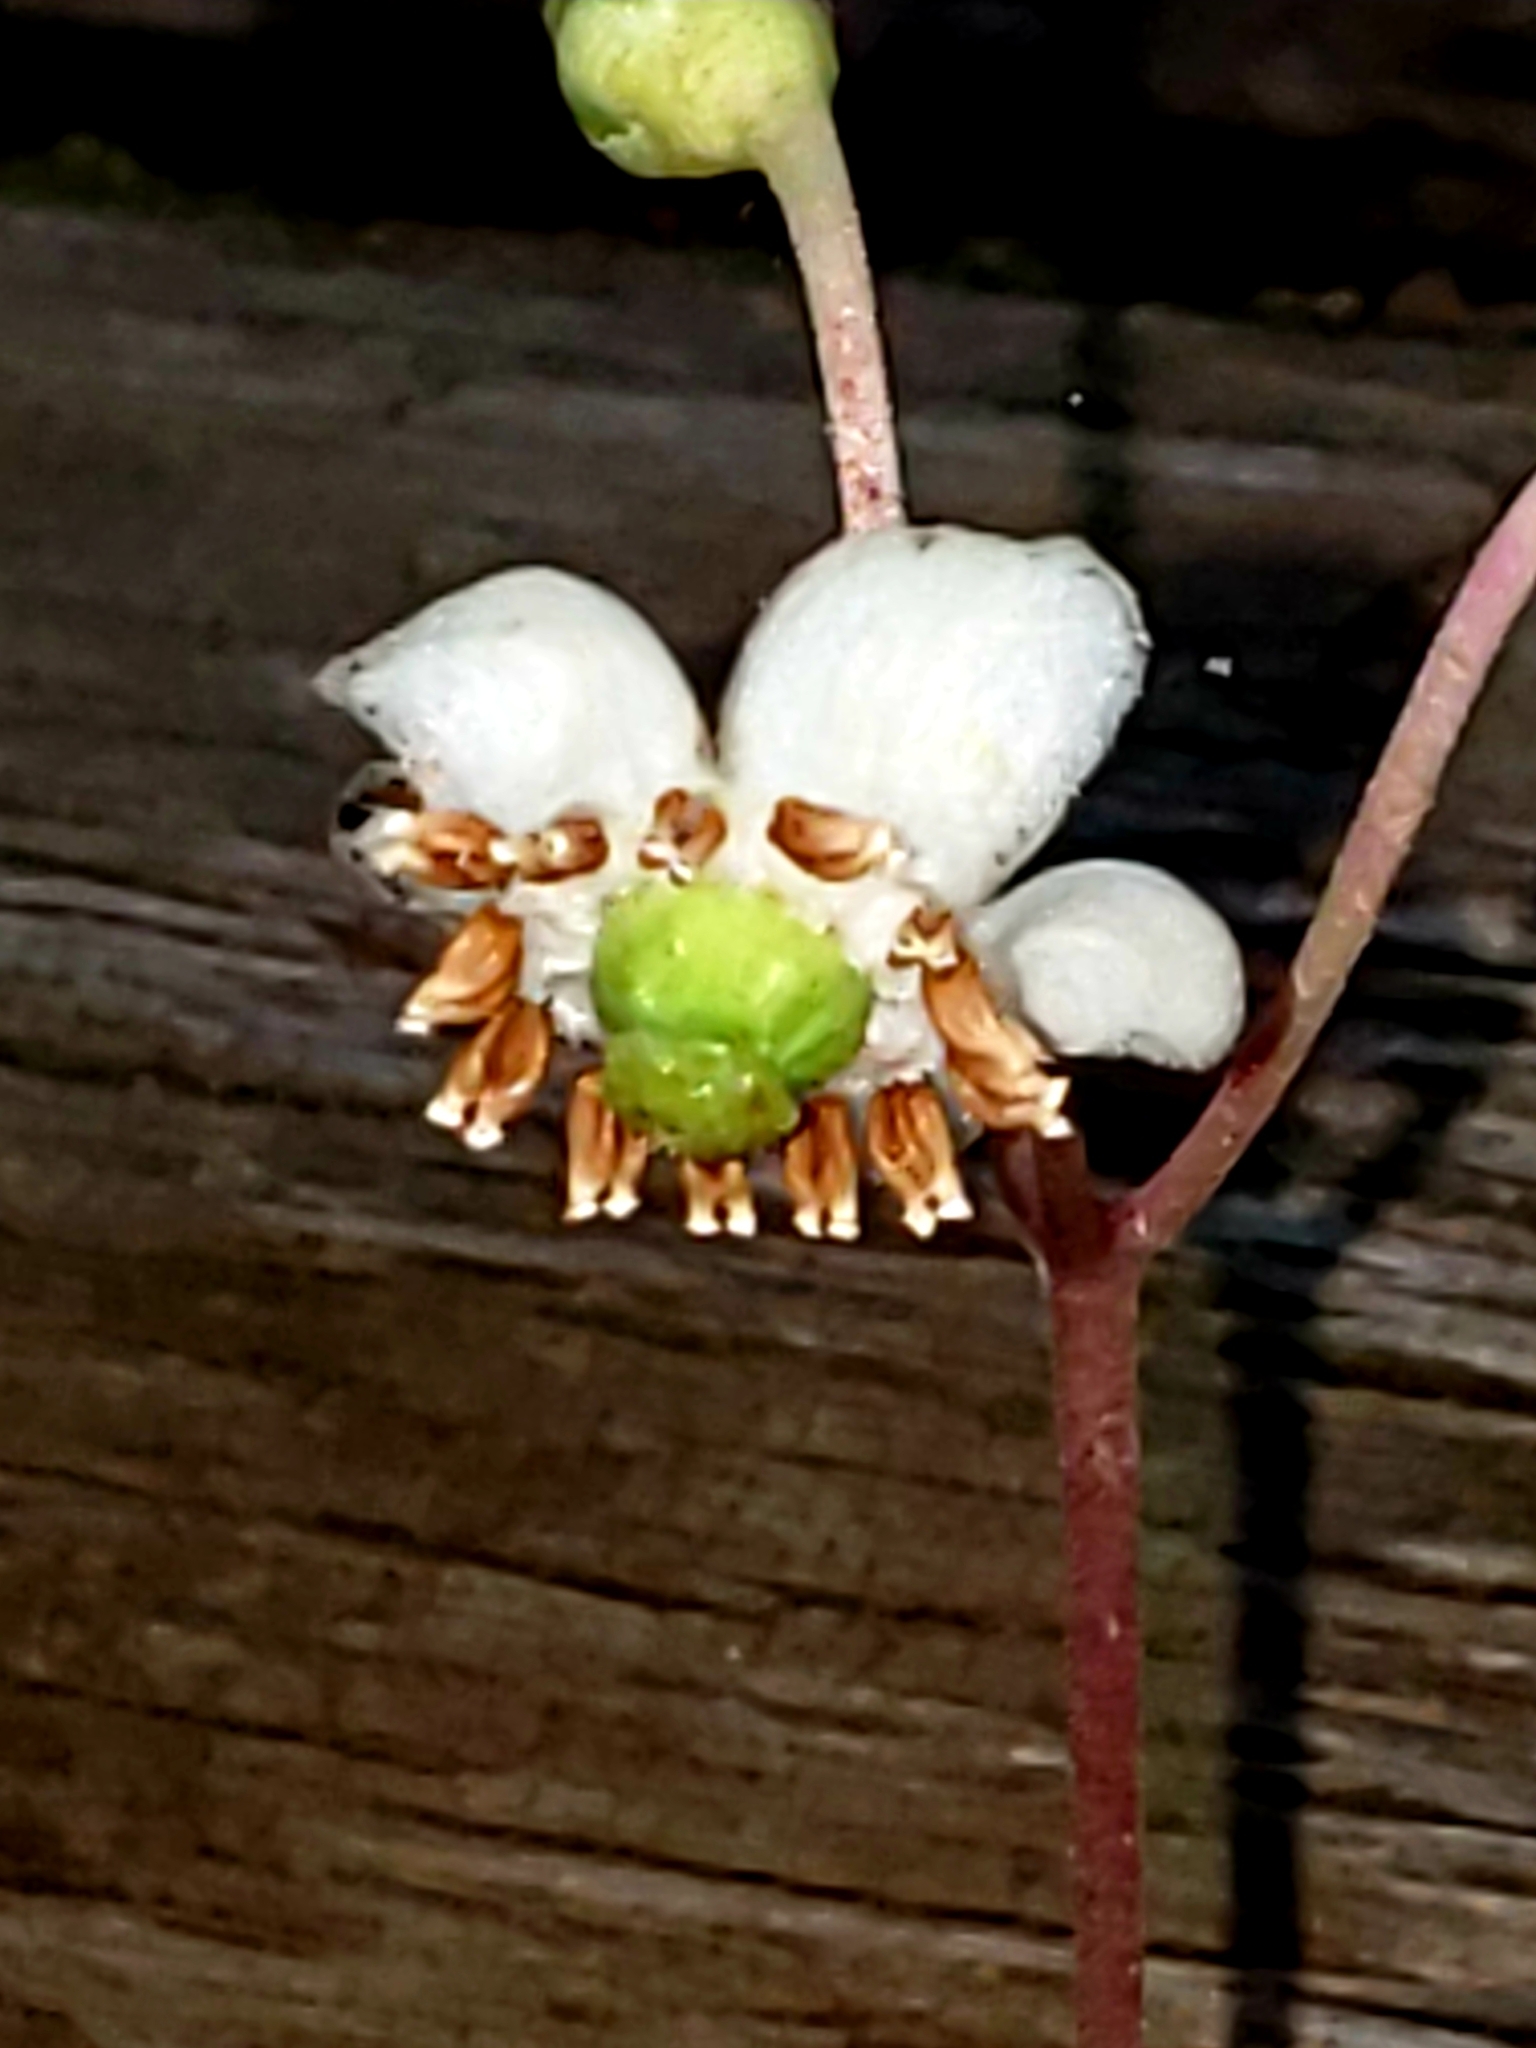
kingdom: Plantae
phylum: Tracheophyta
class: Magnoliopsida
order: Ericales
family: Ericaceae
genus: Chimaphila
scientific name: Chimaphila maculata
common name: Spotted pipsissewa
